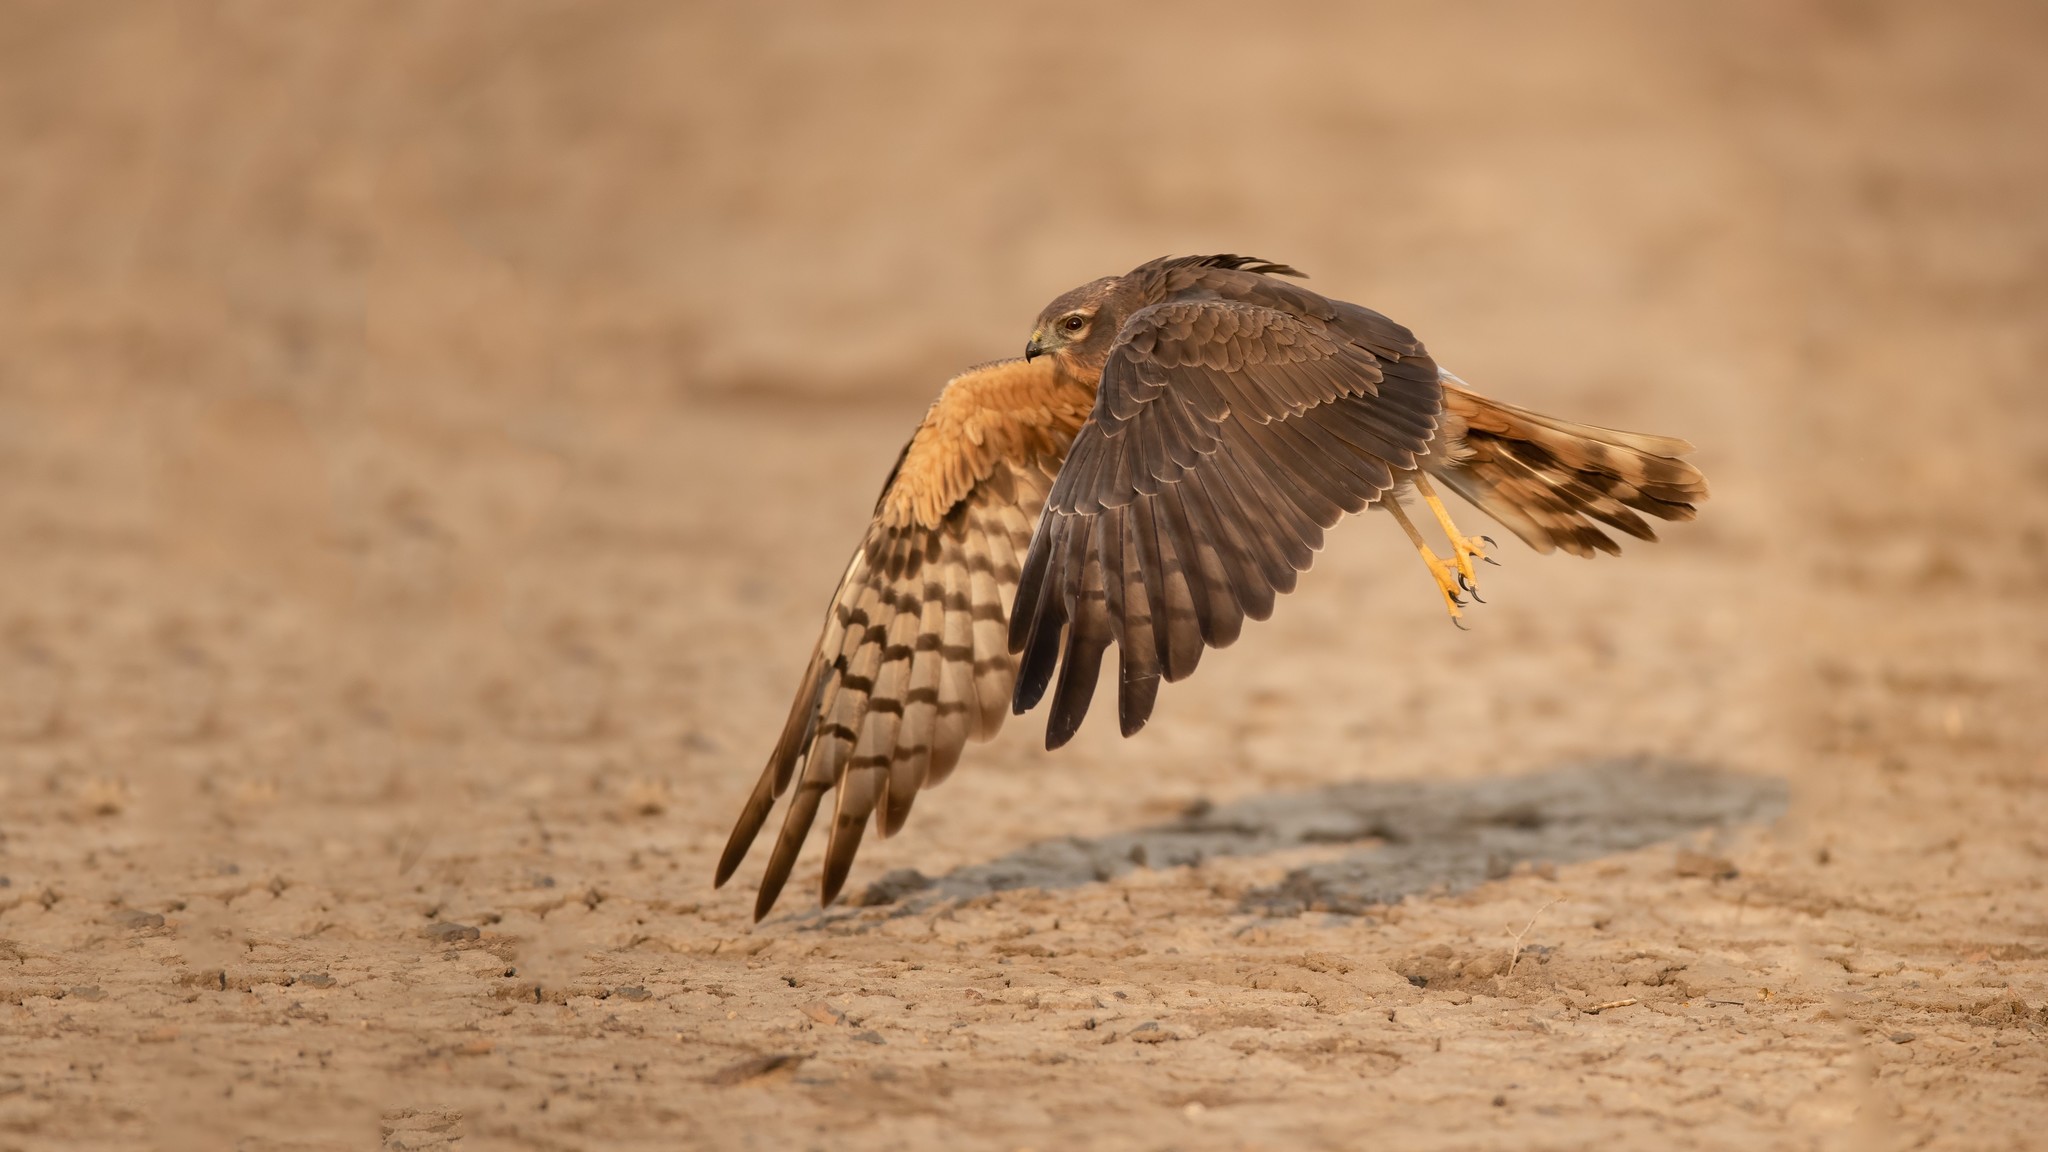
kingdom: Animalia
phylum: Chordata
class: Aves
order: Accipitriformes
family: Accipitridae
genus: Circus
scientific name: Circus pygargus
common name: Montagu's harrier
